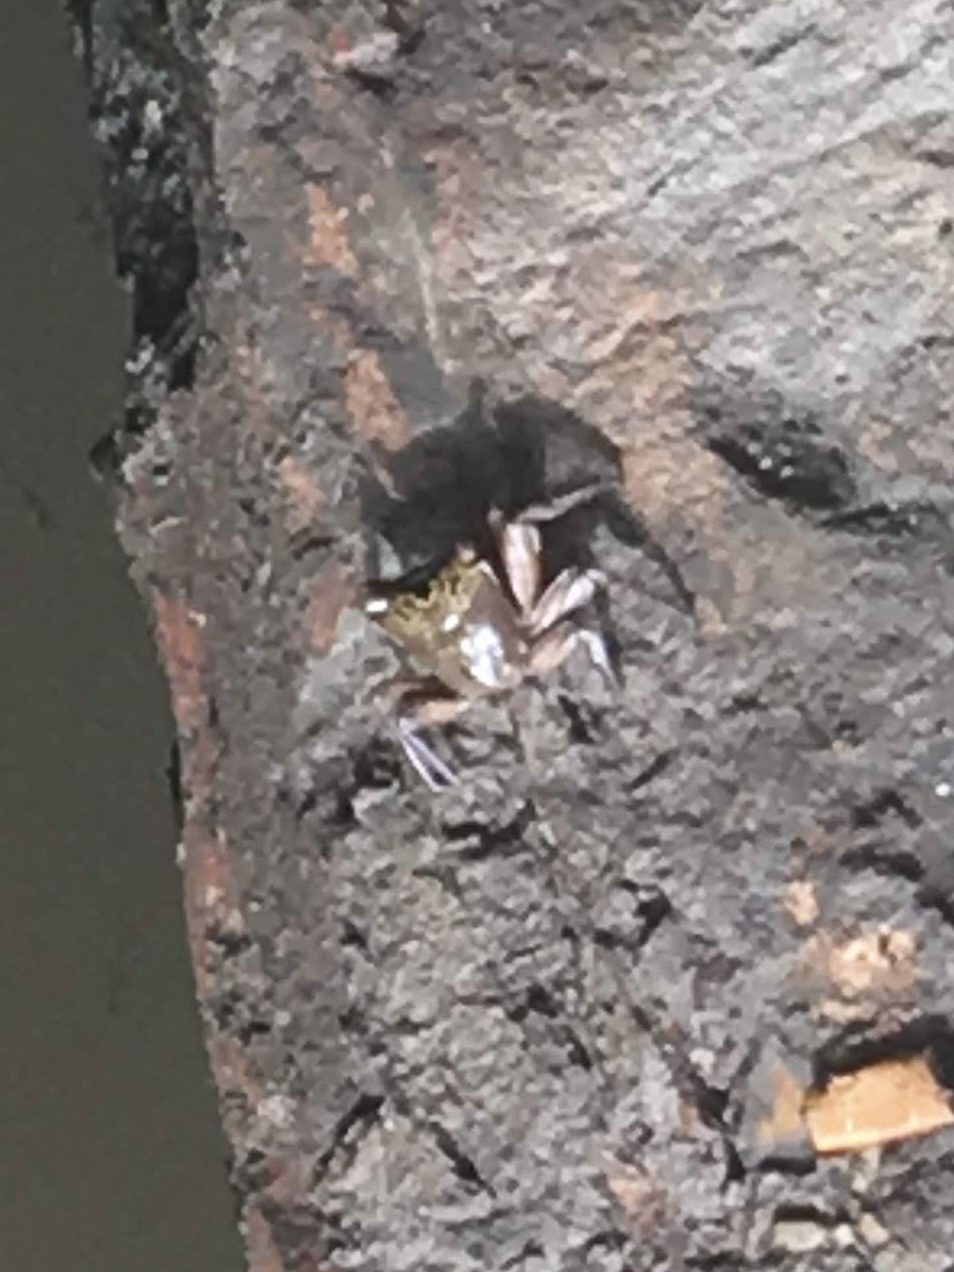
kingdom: Animalia
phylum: Arthropoda
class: Malacostraca
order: Decapoda
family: Sesarmidae
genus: Aratus
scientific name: Aratus pisonii
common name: Mangrove crab
